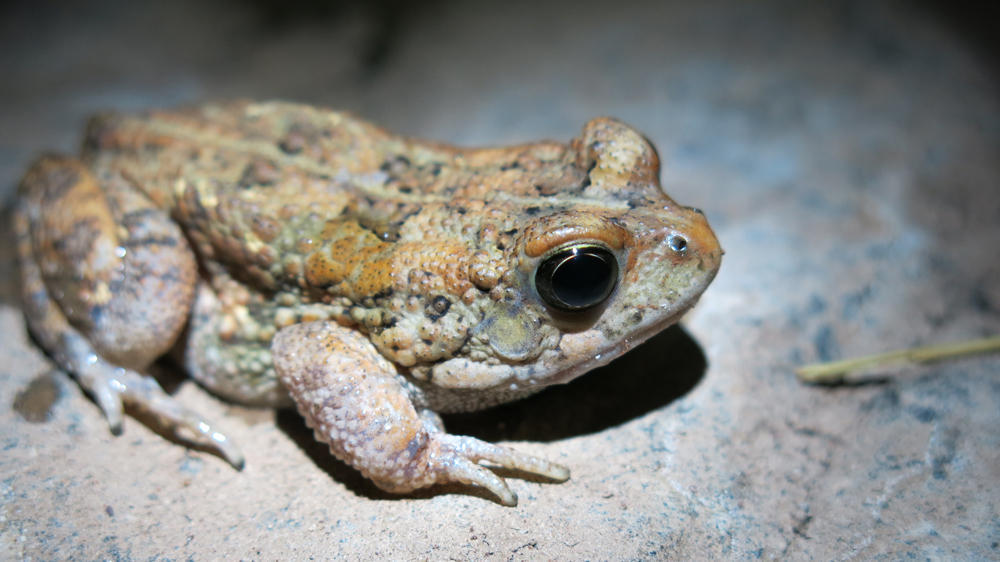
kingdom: Animalia
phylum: Chordata
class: Amphibia
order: Anura
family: Bufonidae
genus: Sclerophrys
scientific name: Sclerophrys pusilla
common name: Merten's striped toad
